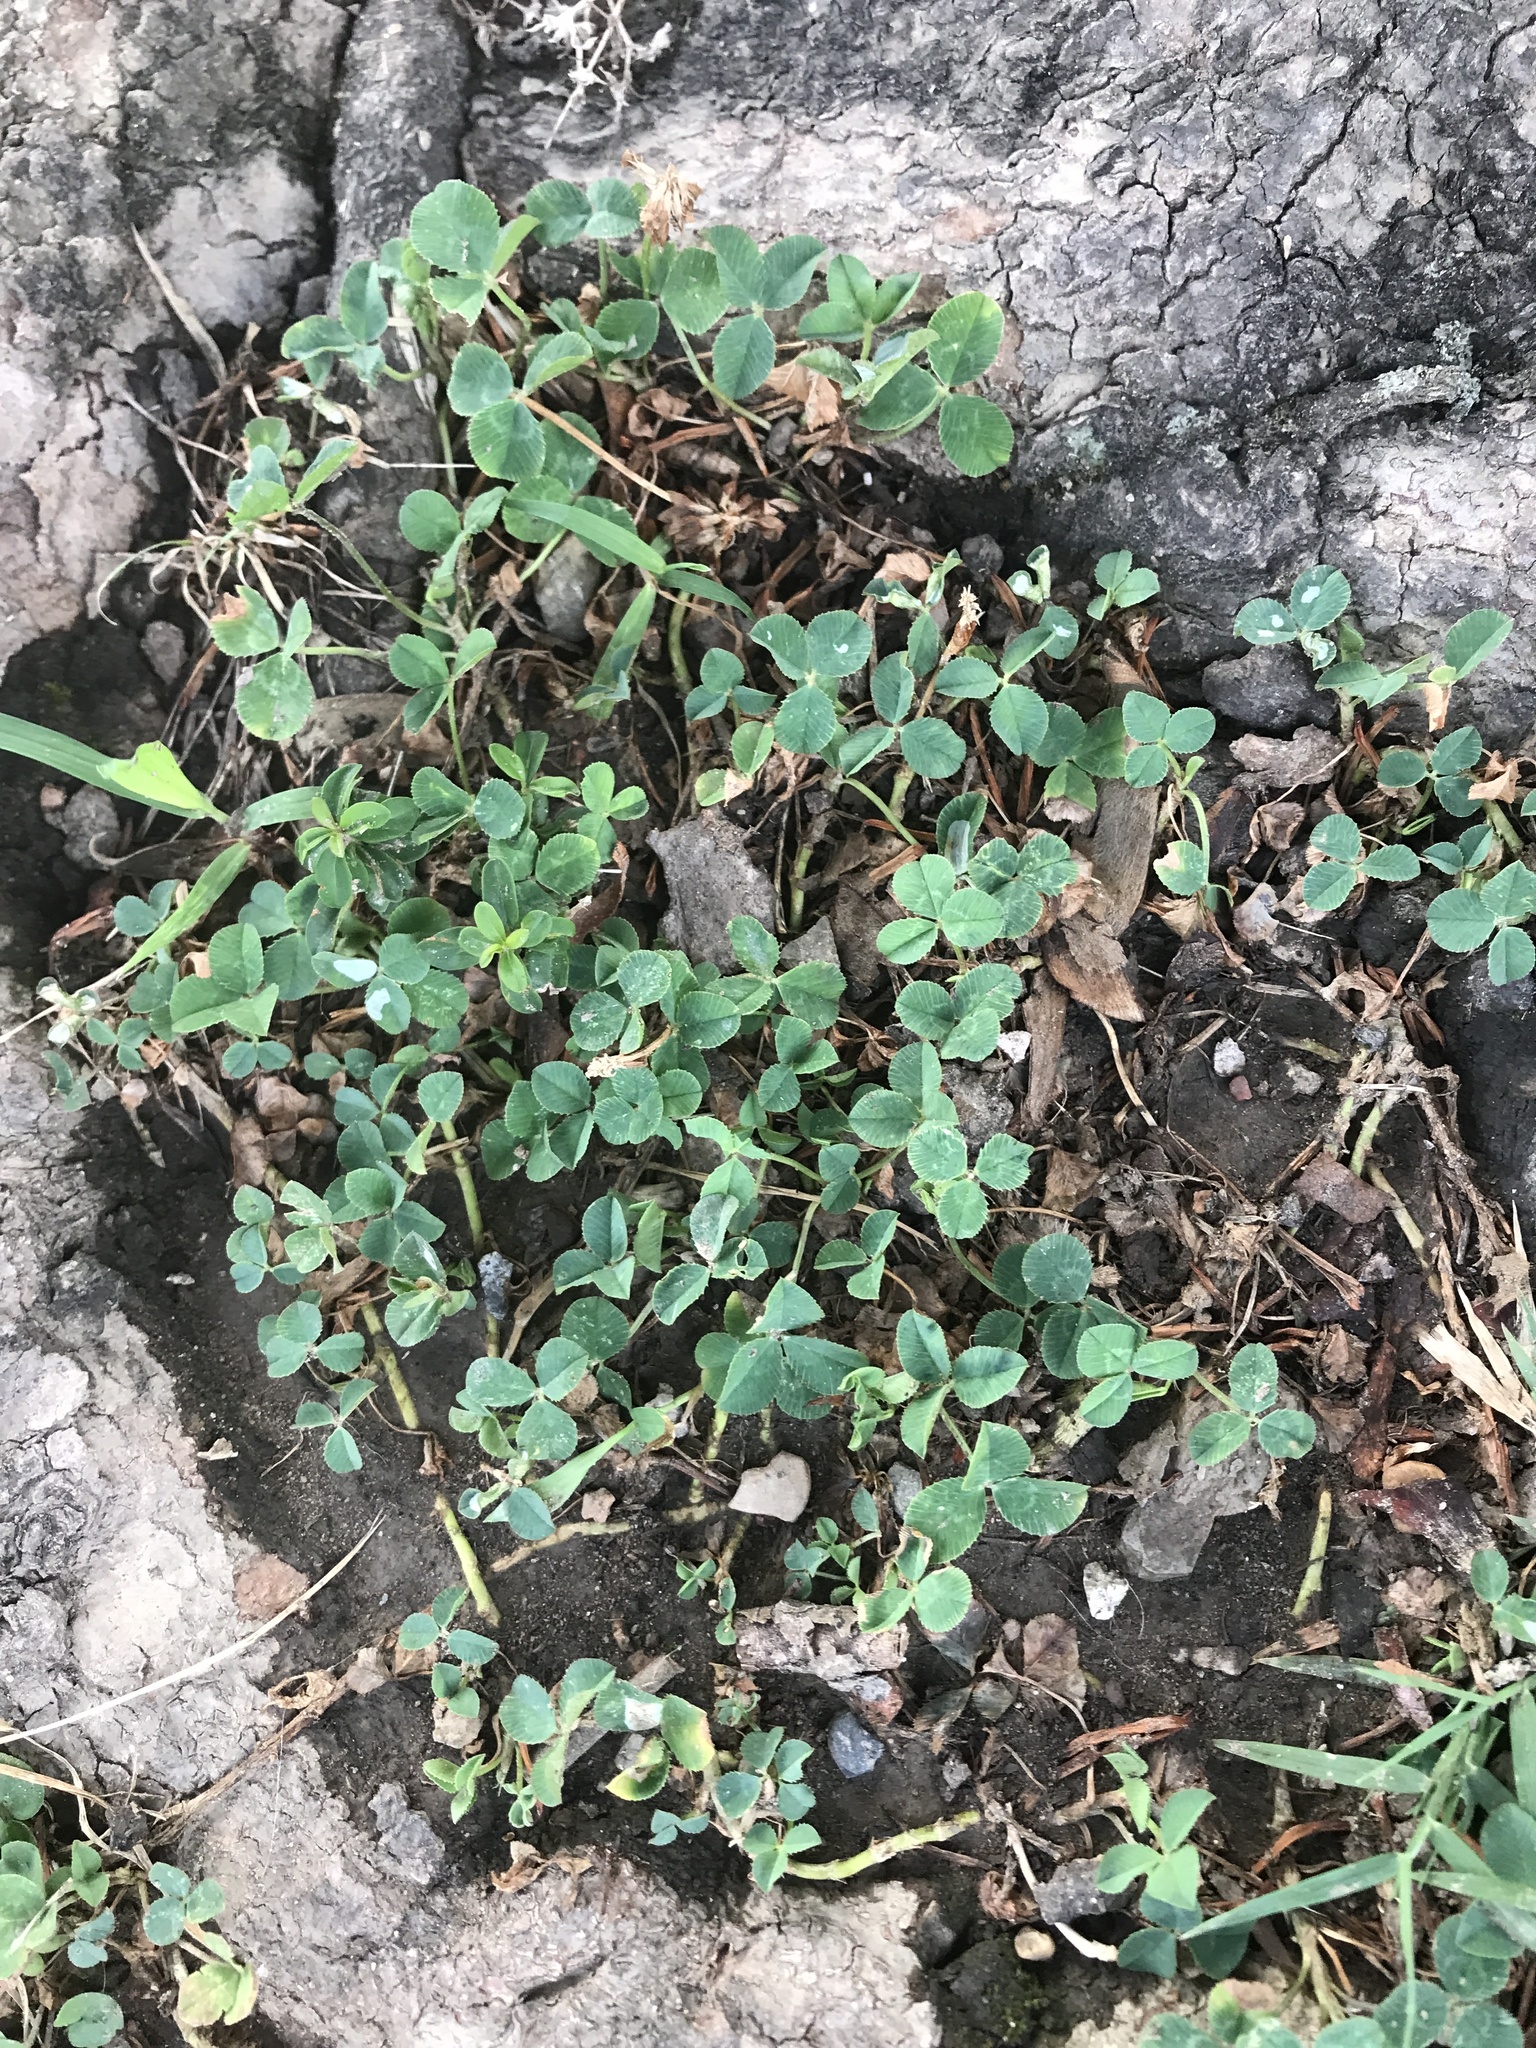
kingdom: Plantae
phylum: Tracheophyta
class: Magnoliopsida
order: Fabales
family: Fabaceae
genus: Trifolium
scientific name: Trifolium repens
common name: White clover
